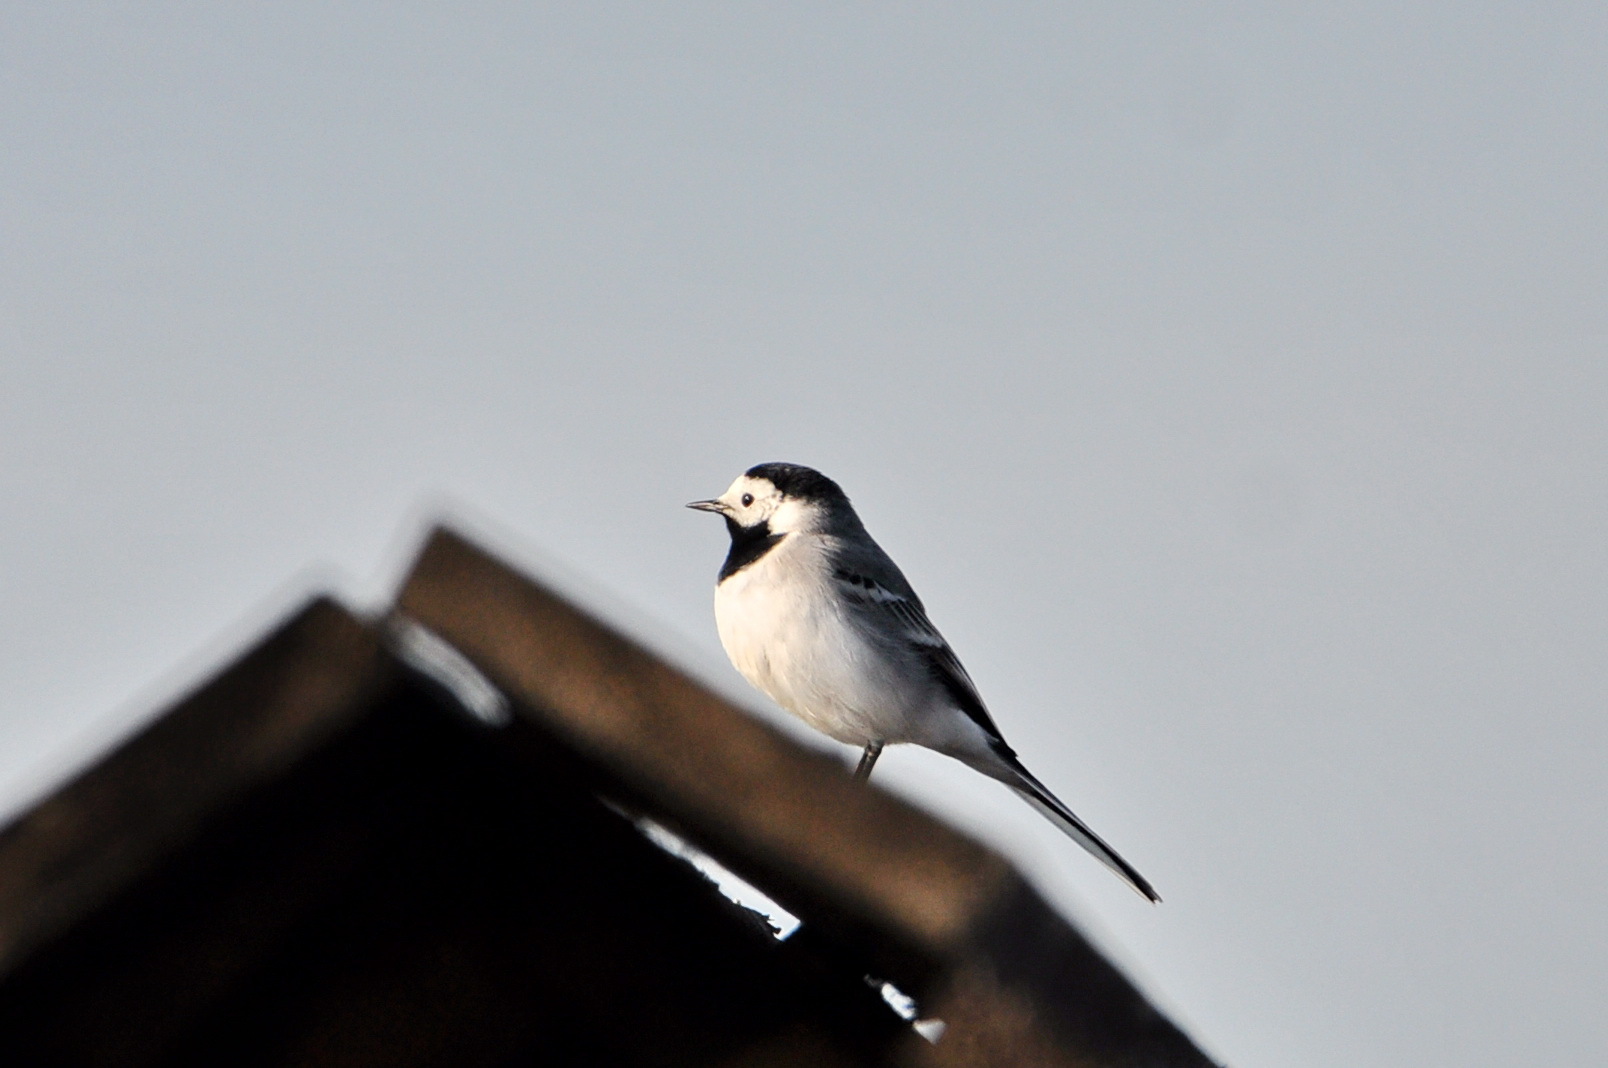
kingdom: Animalia
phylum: Chordata
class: Aves
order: Passeriformes
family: Motacillidae
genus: Motacilla
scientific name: Motacilla alba
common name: White wagtail
